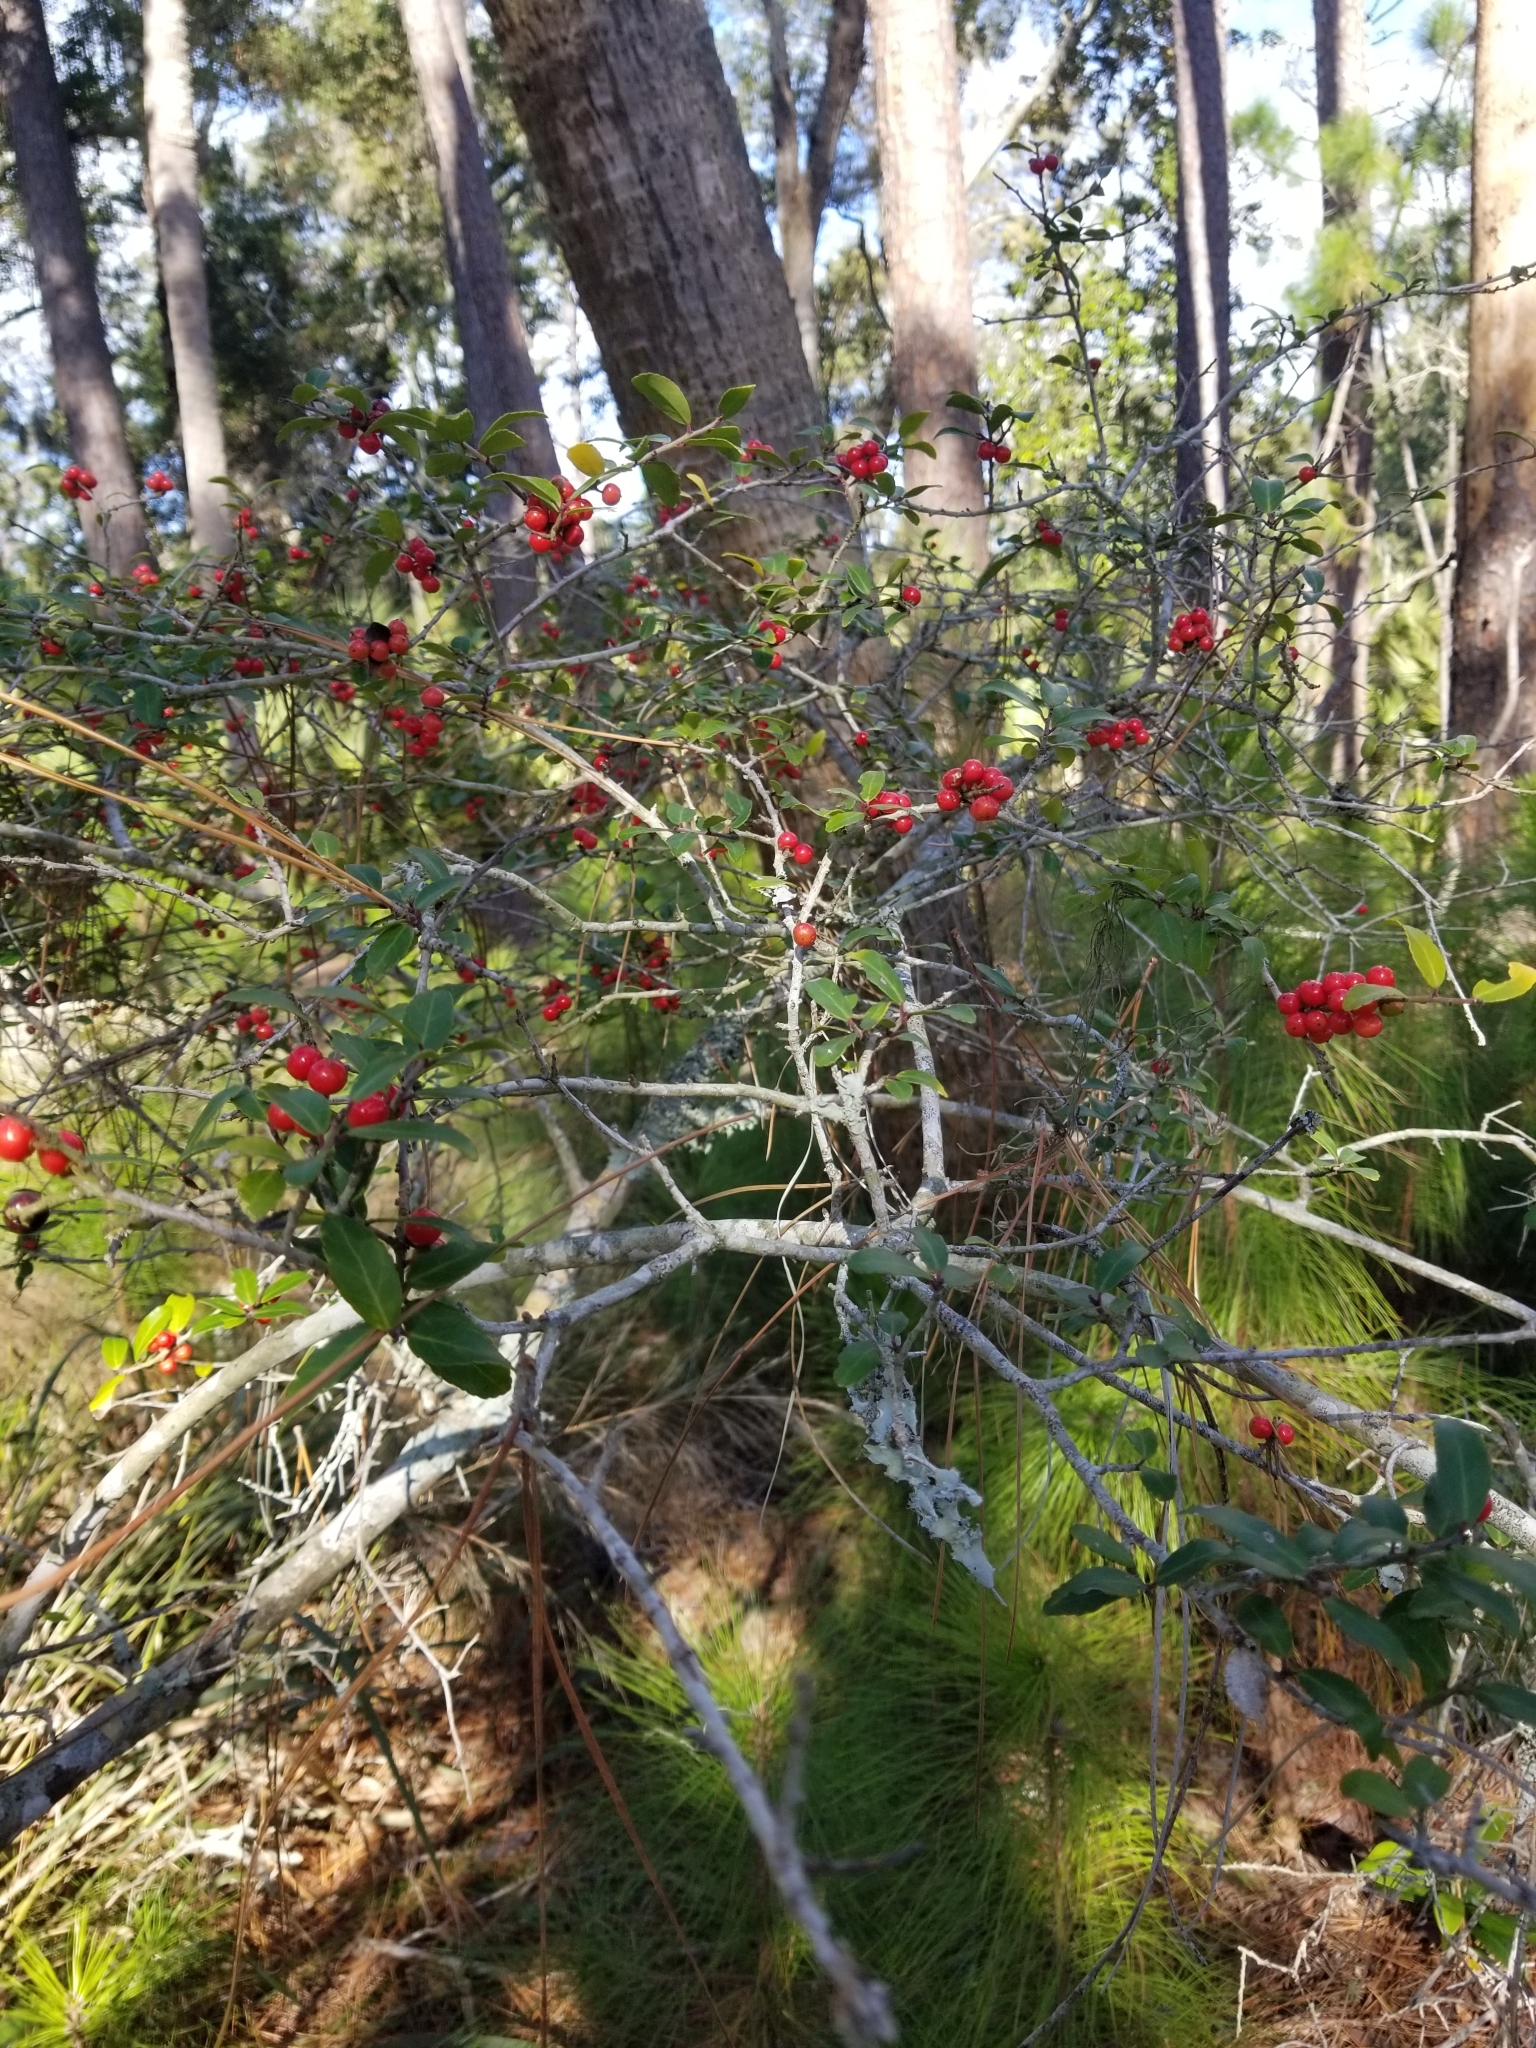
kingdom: Plantae
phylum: Tracheophyta
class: Magnoliopsida
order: Aquifoliales
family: Aquifoliaceae
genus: Ilex
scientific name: Ilex vomitoria
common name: Yaupon holly
